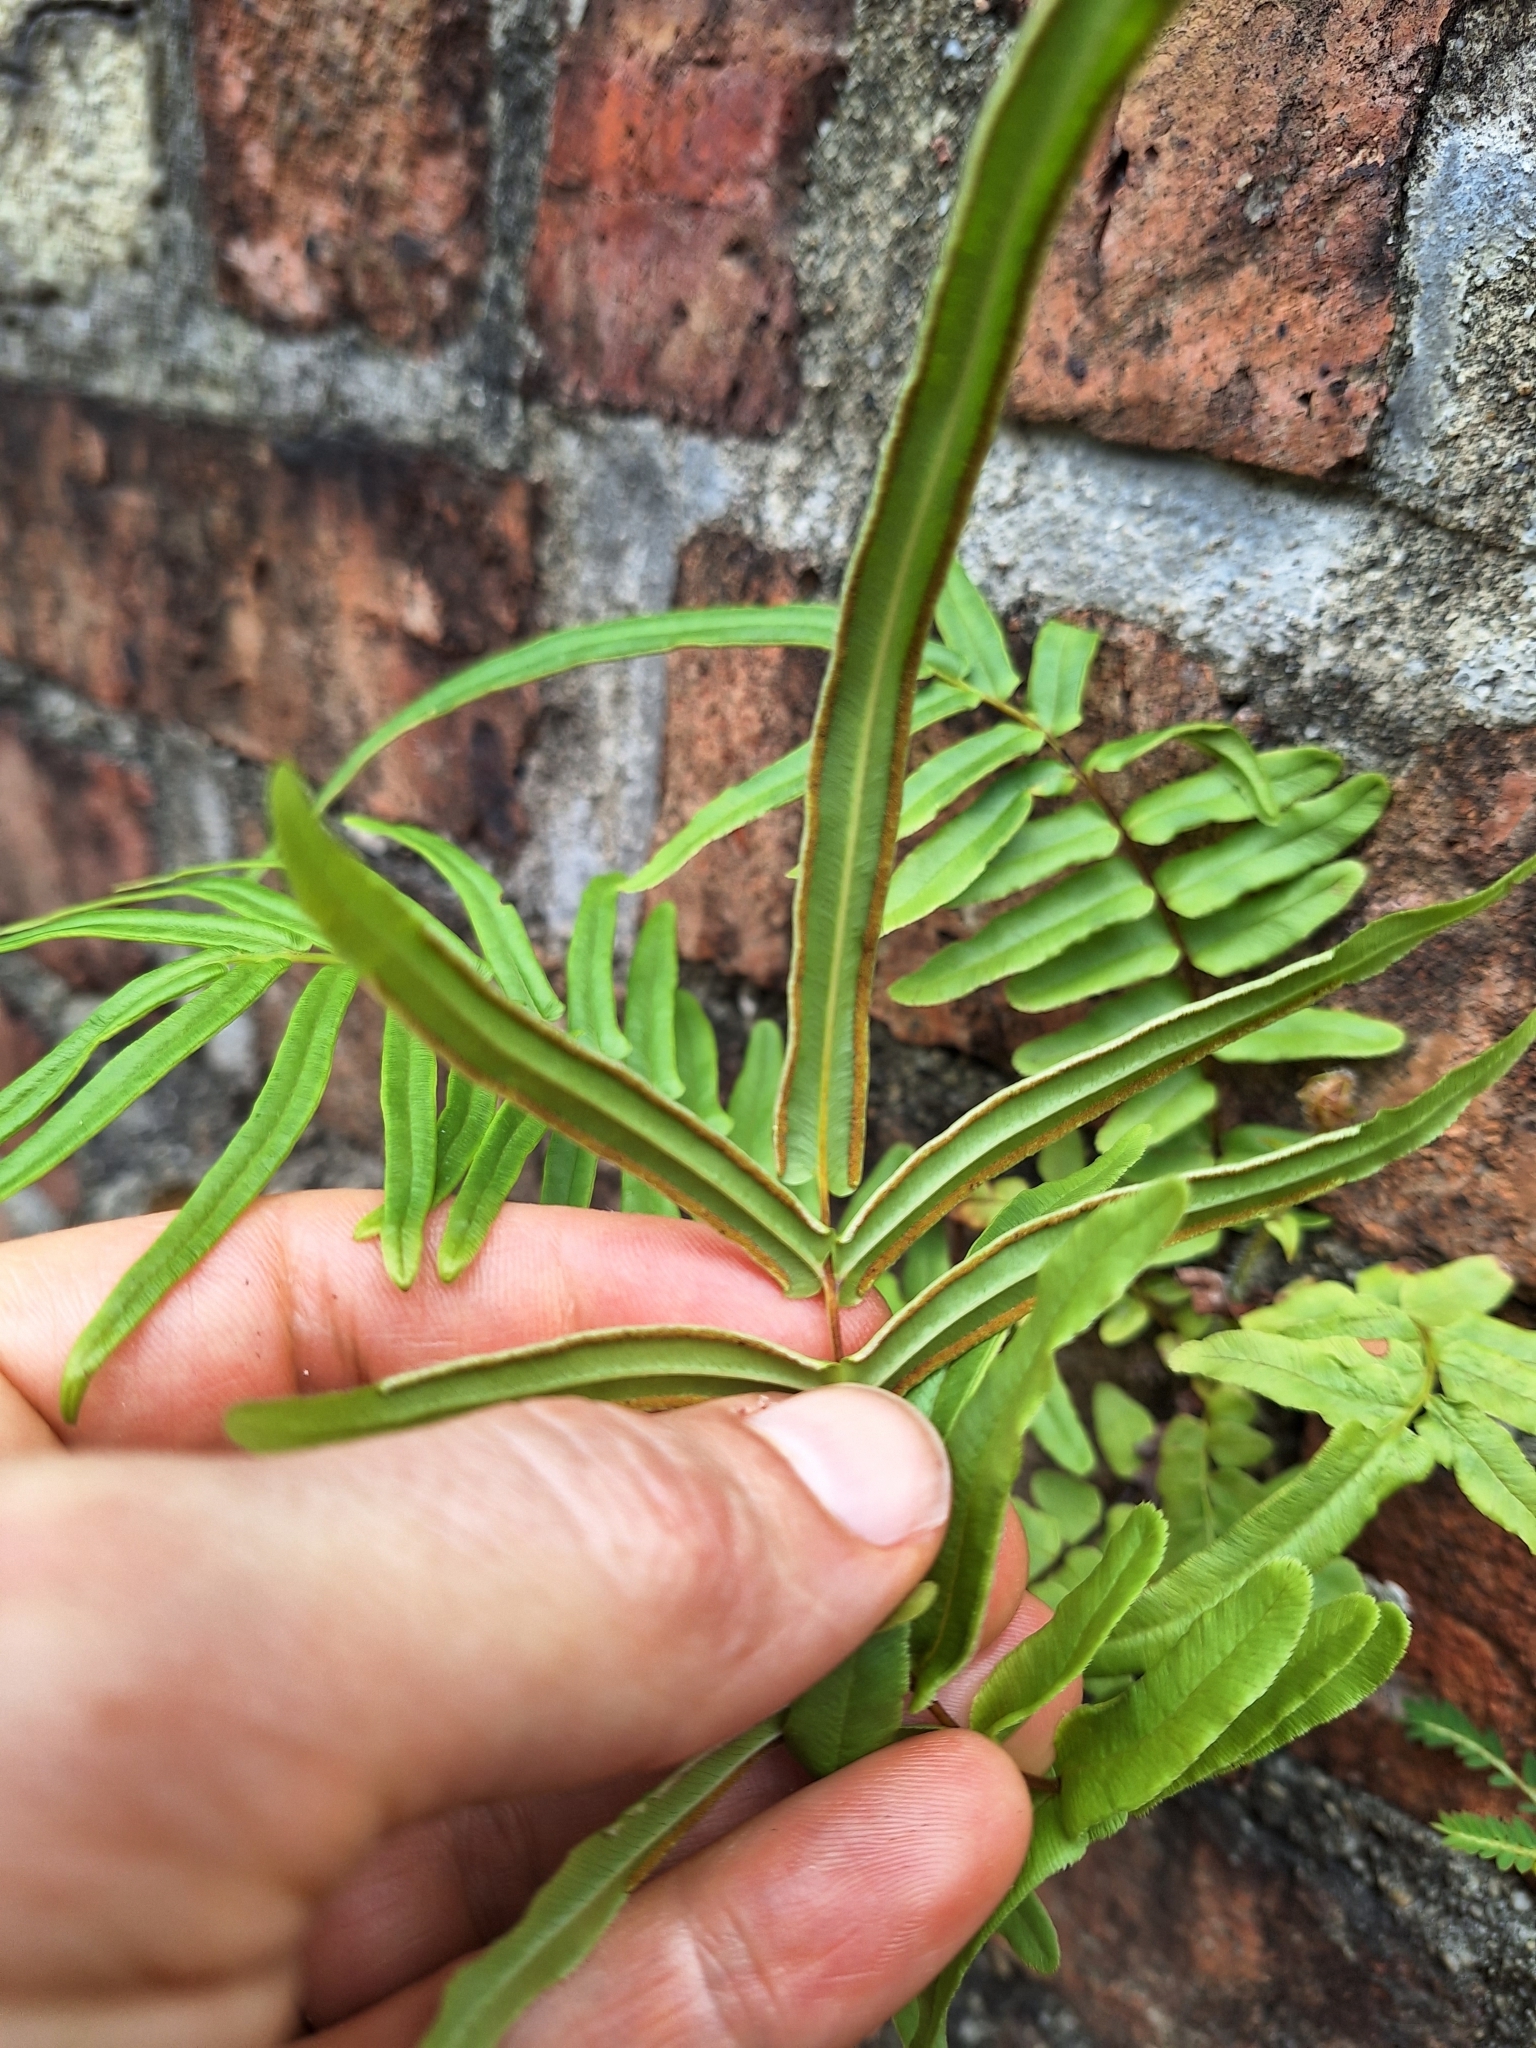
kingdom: Plantae
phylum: Tracheophyta
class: Polypodiopsida
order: Polypodiales
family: Pteridaceae
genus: Pteris
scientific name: Pteris vittata
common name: Ladder brake
